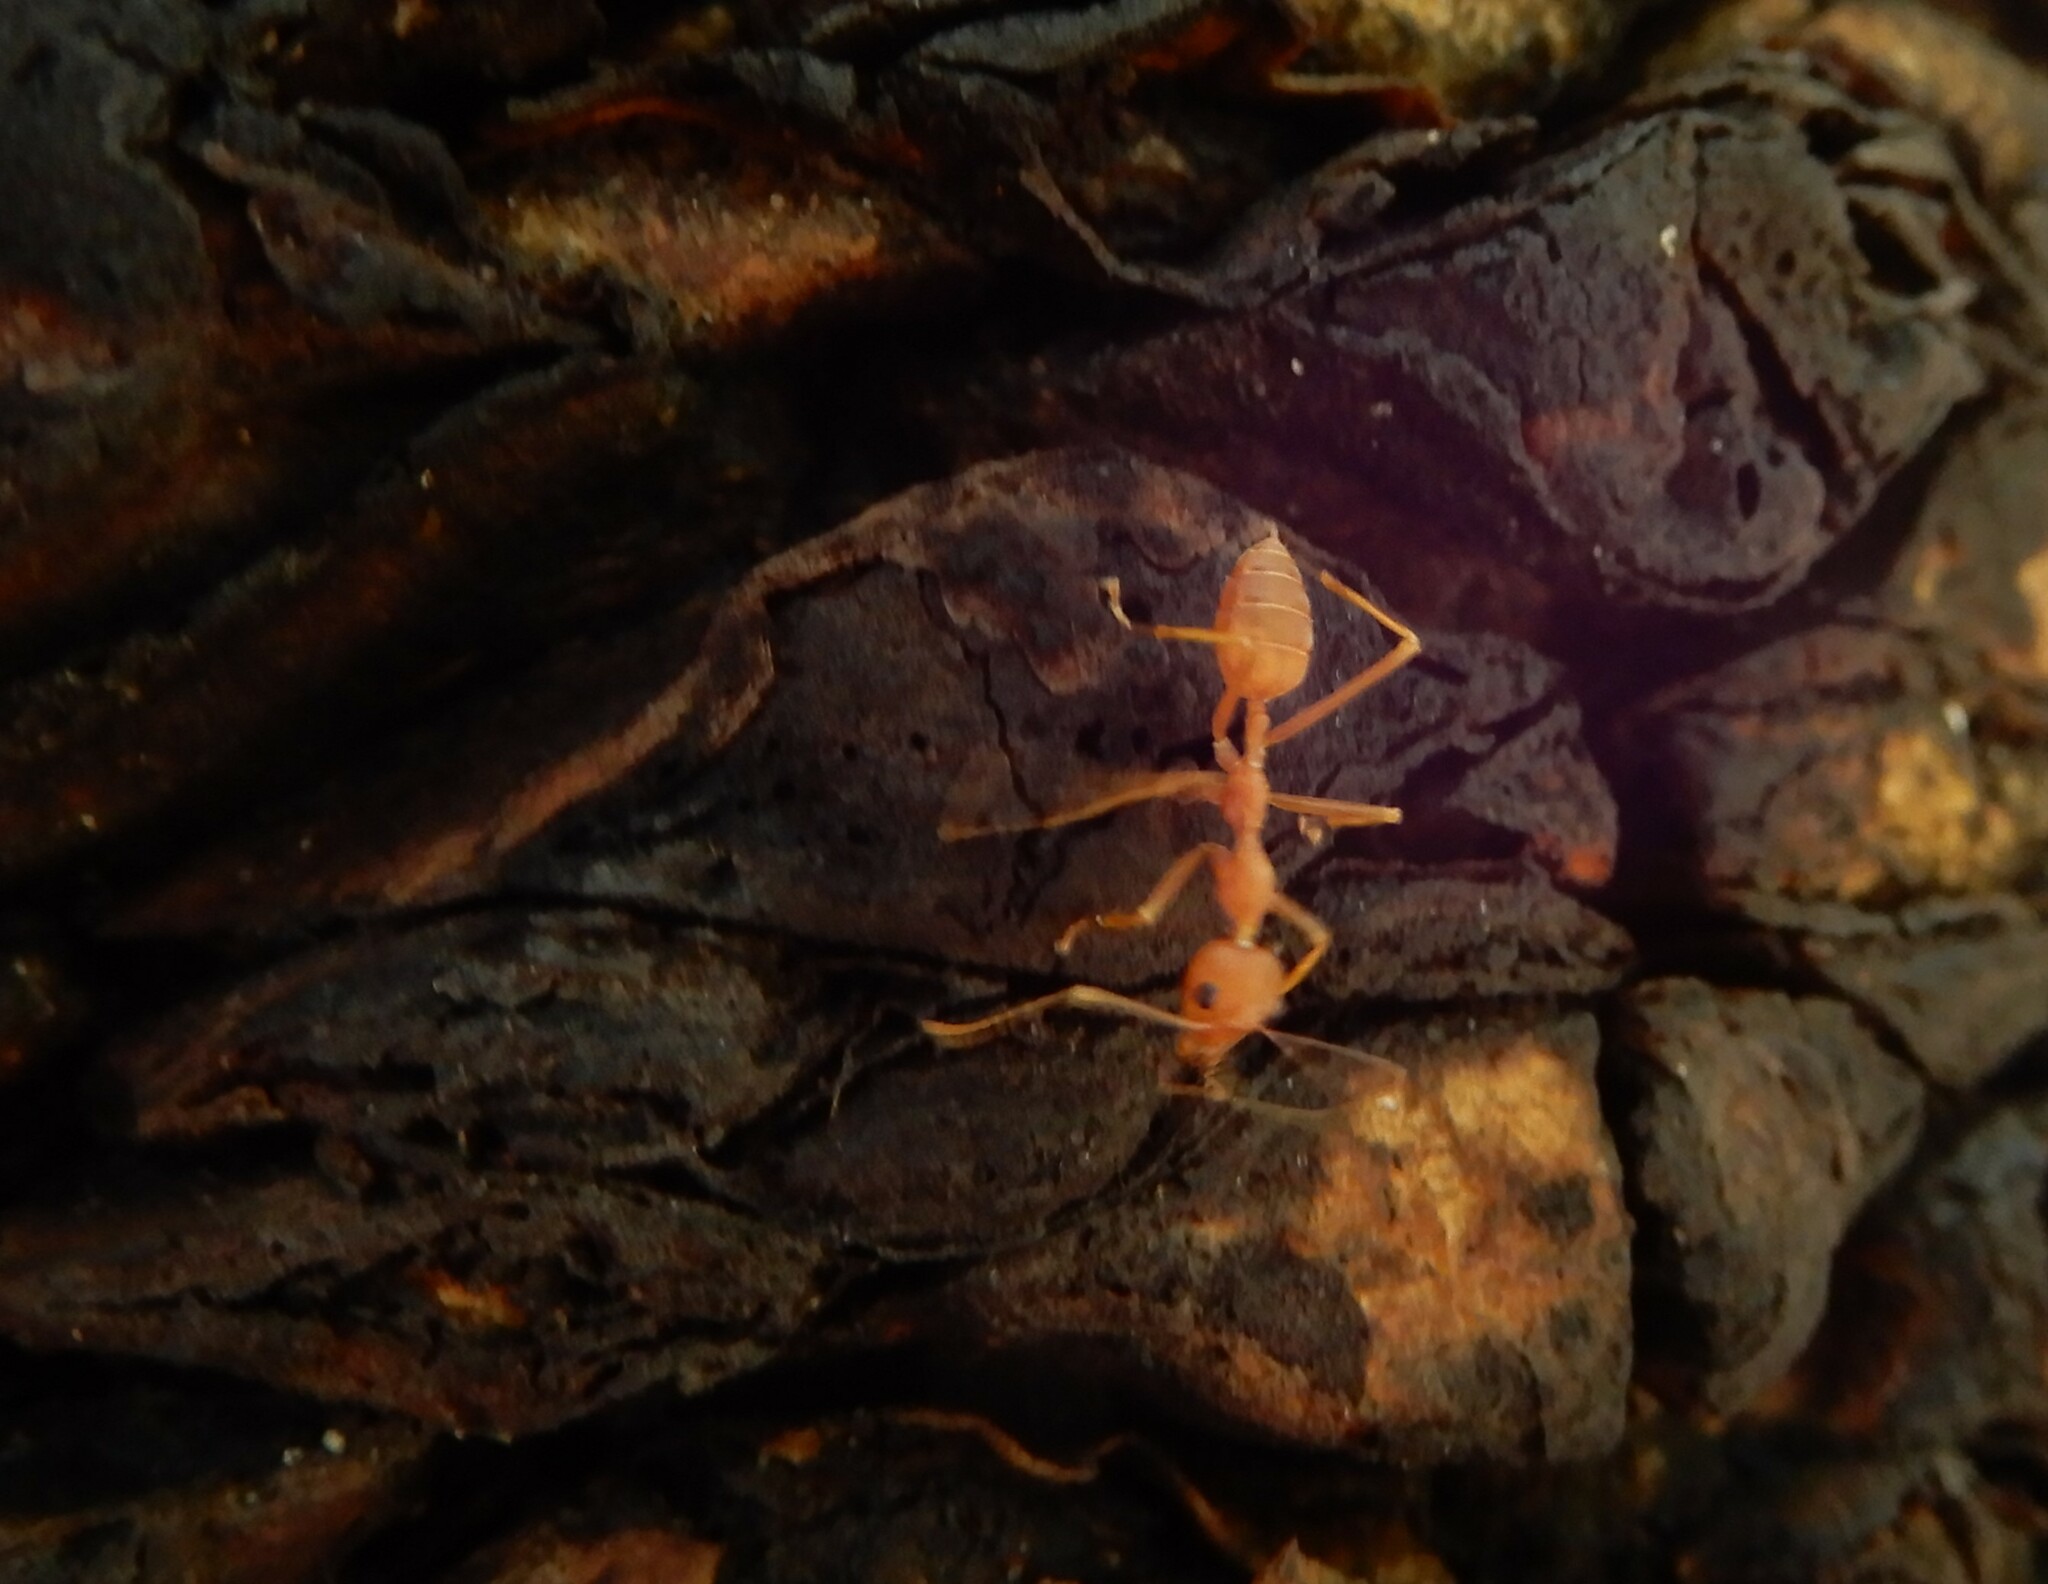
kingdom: Animalia
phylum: Arthropoda
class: Insecta
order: Hymenoptera
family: Formicidae
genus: Oecophylla
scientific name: Oecophylla smaragdina
